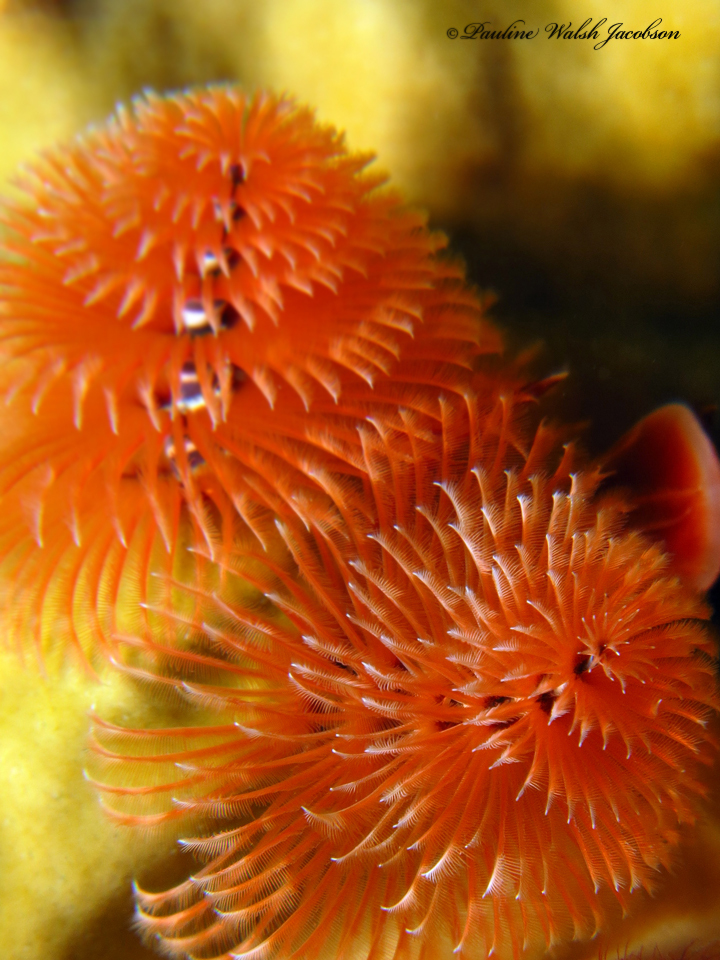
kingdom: Animalia
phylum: Annelida
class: Polychaeta
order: Sabellida
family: Serpulidae
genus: Spirobranchus
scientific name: Spirobranchus giganteus
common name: Christmas tree worm
